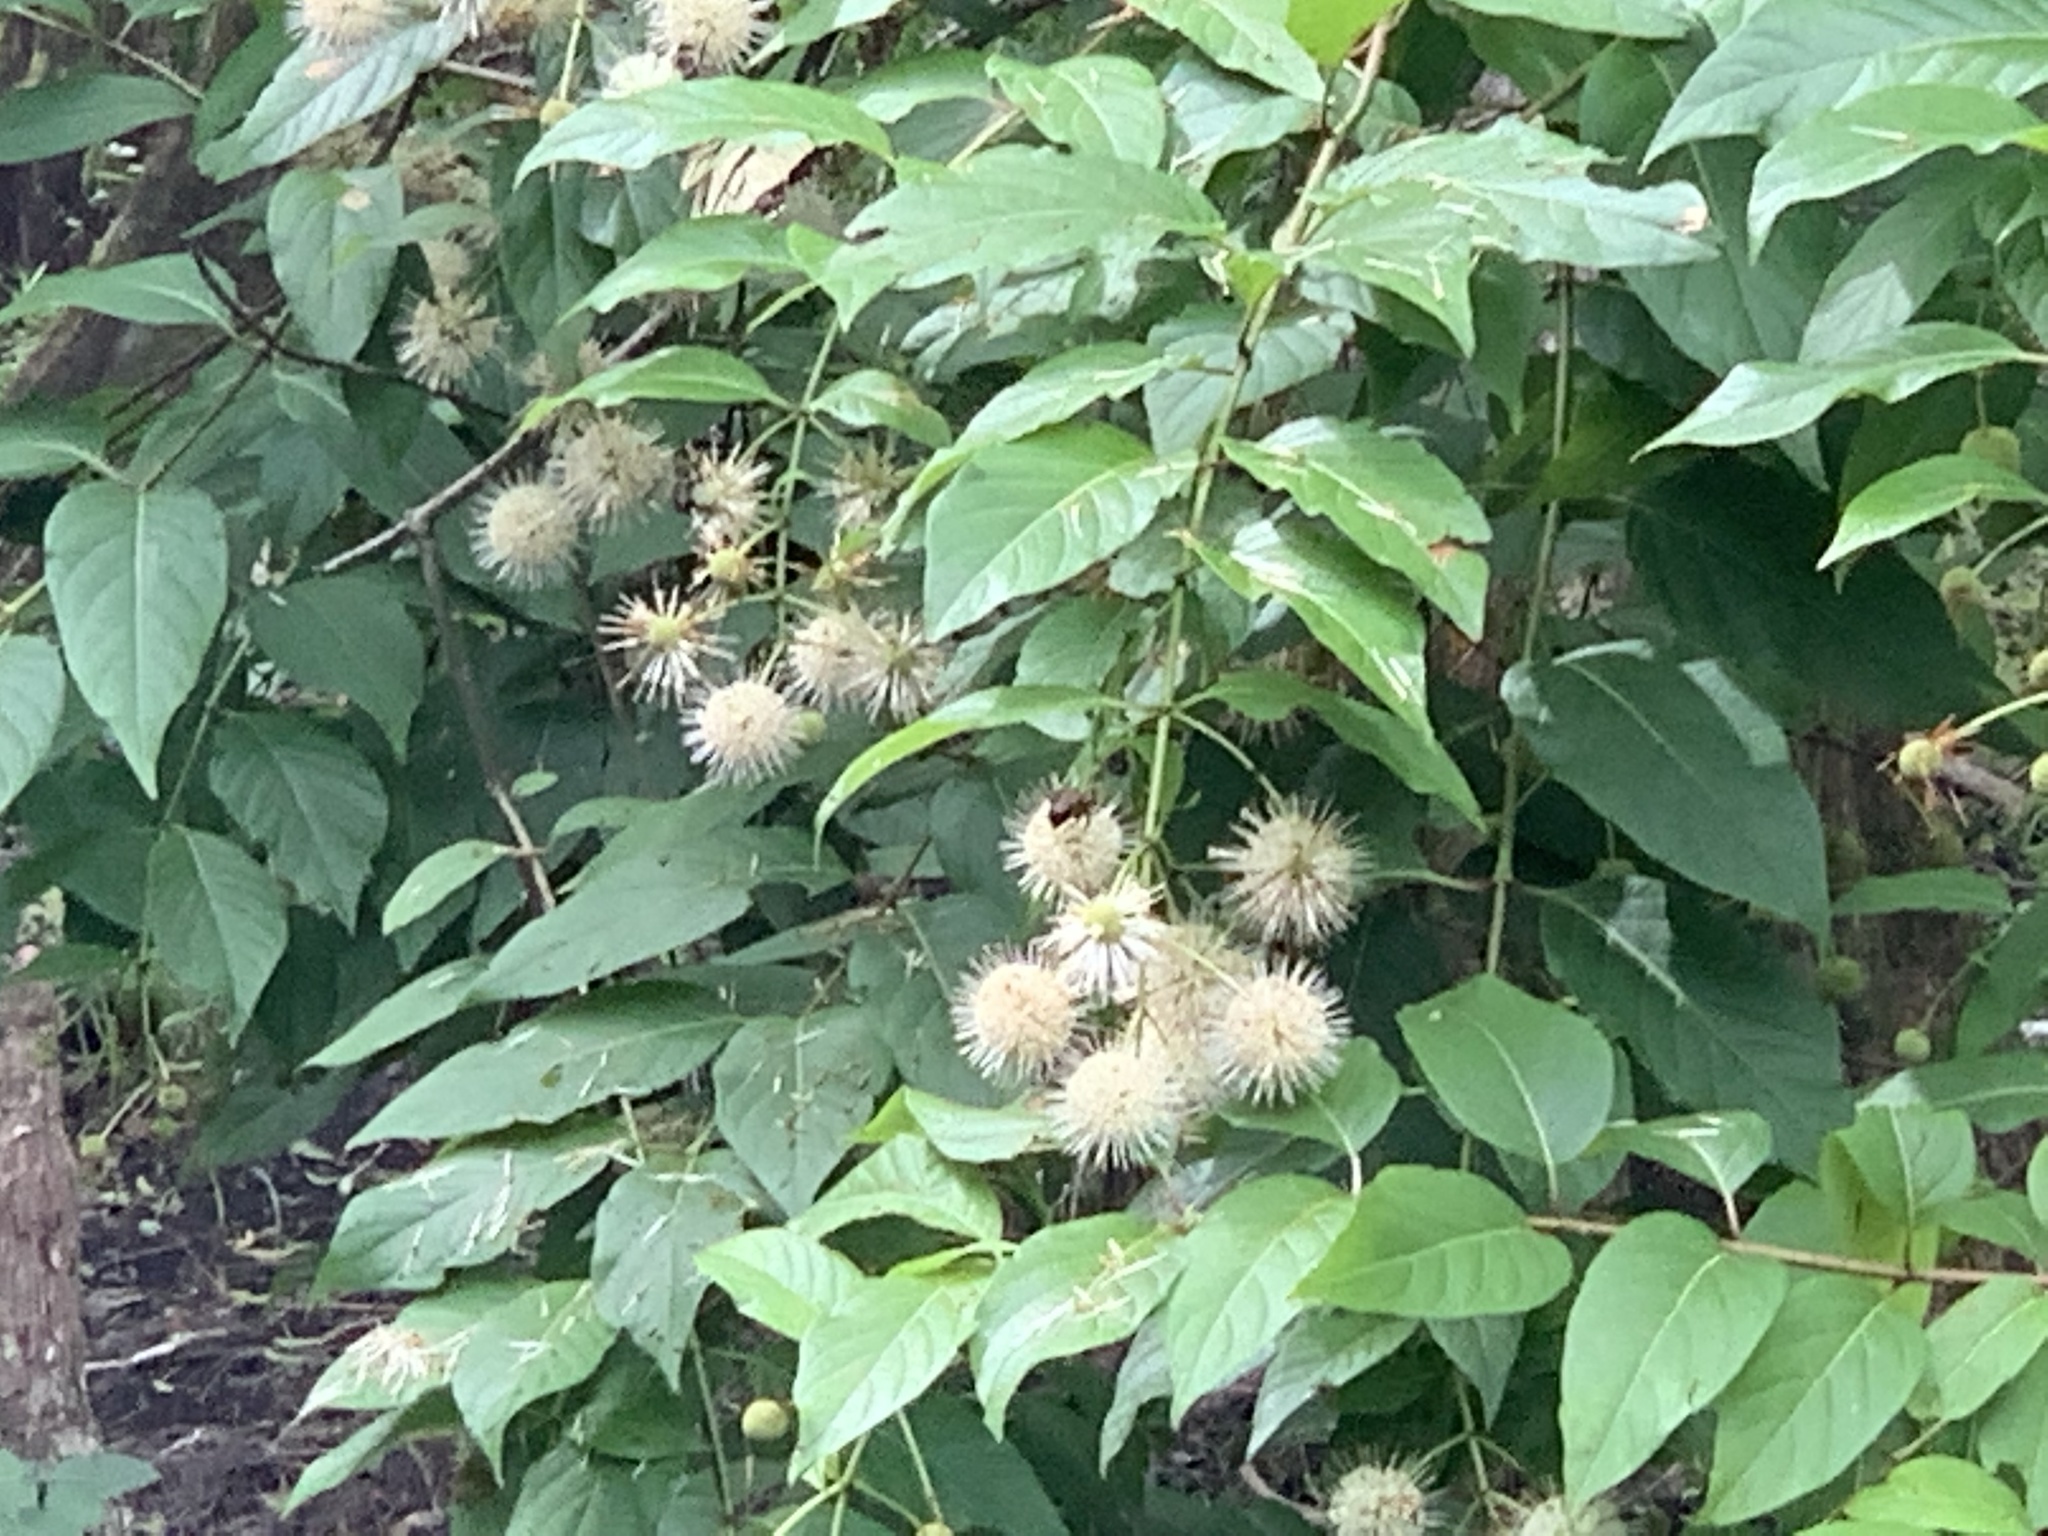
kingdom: Plantae
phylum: Tracheophyta
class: Magnoliopsida
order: Gentianales
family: Rubiaceae
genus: Cephalanthus
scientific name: Cephalanthus occidentalis
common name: Button-willow
